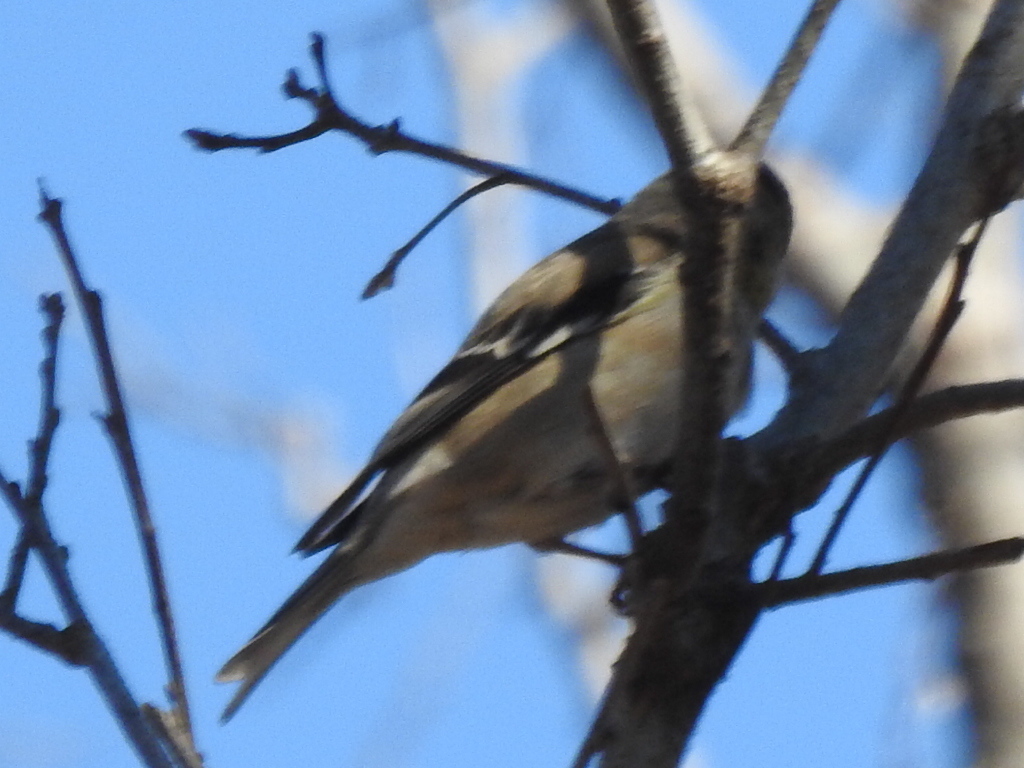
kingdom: Animalia
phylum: Chordata
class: Aves
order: Passeriformes
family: Fringillidae
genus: Spinus
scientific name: Spinus tristis
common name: American goldfinch
